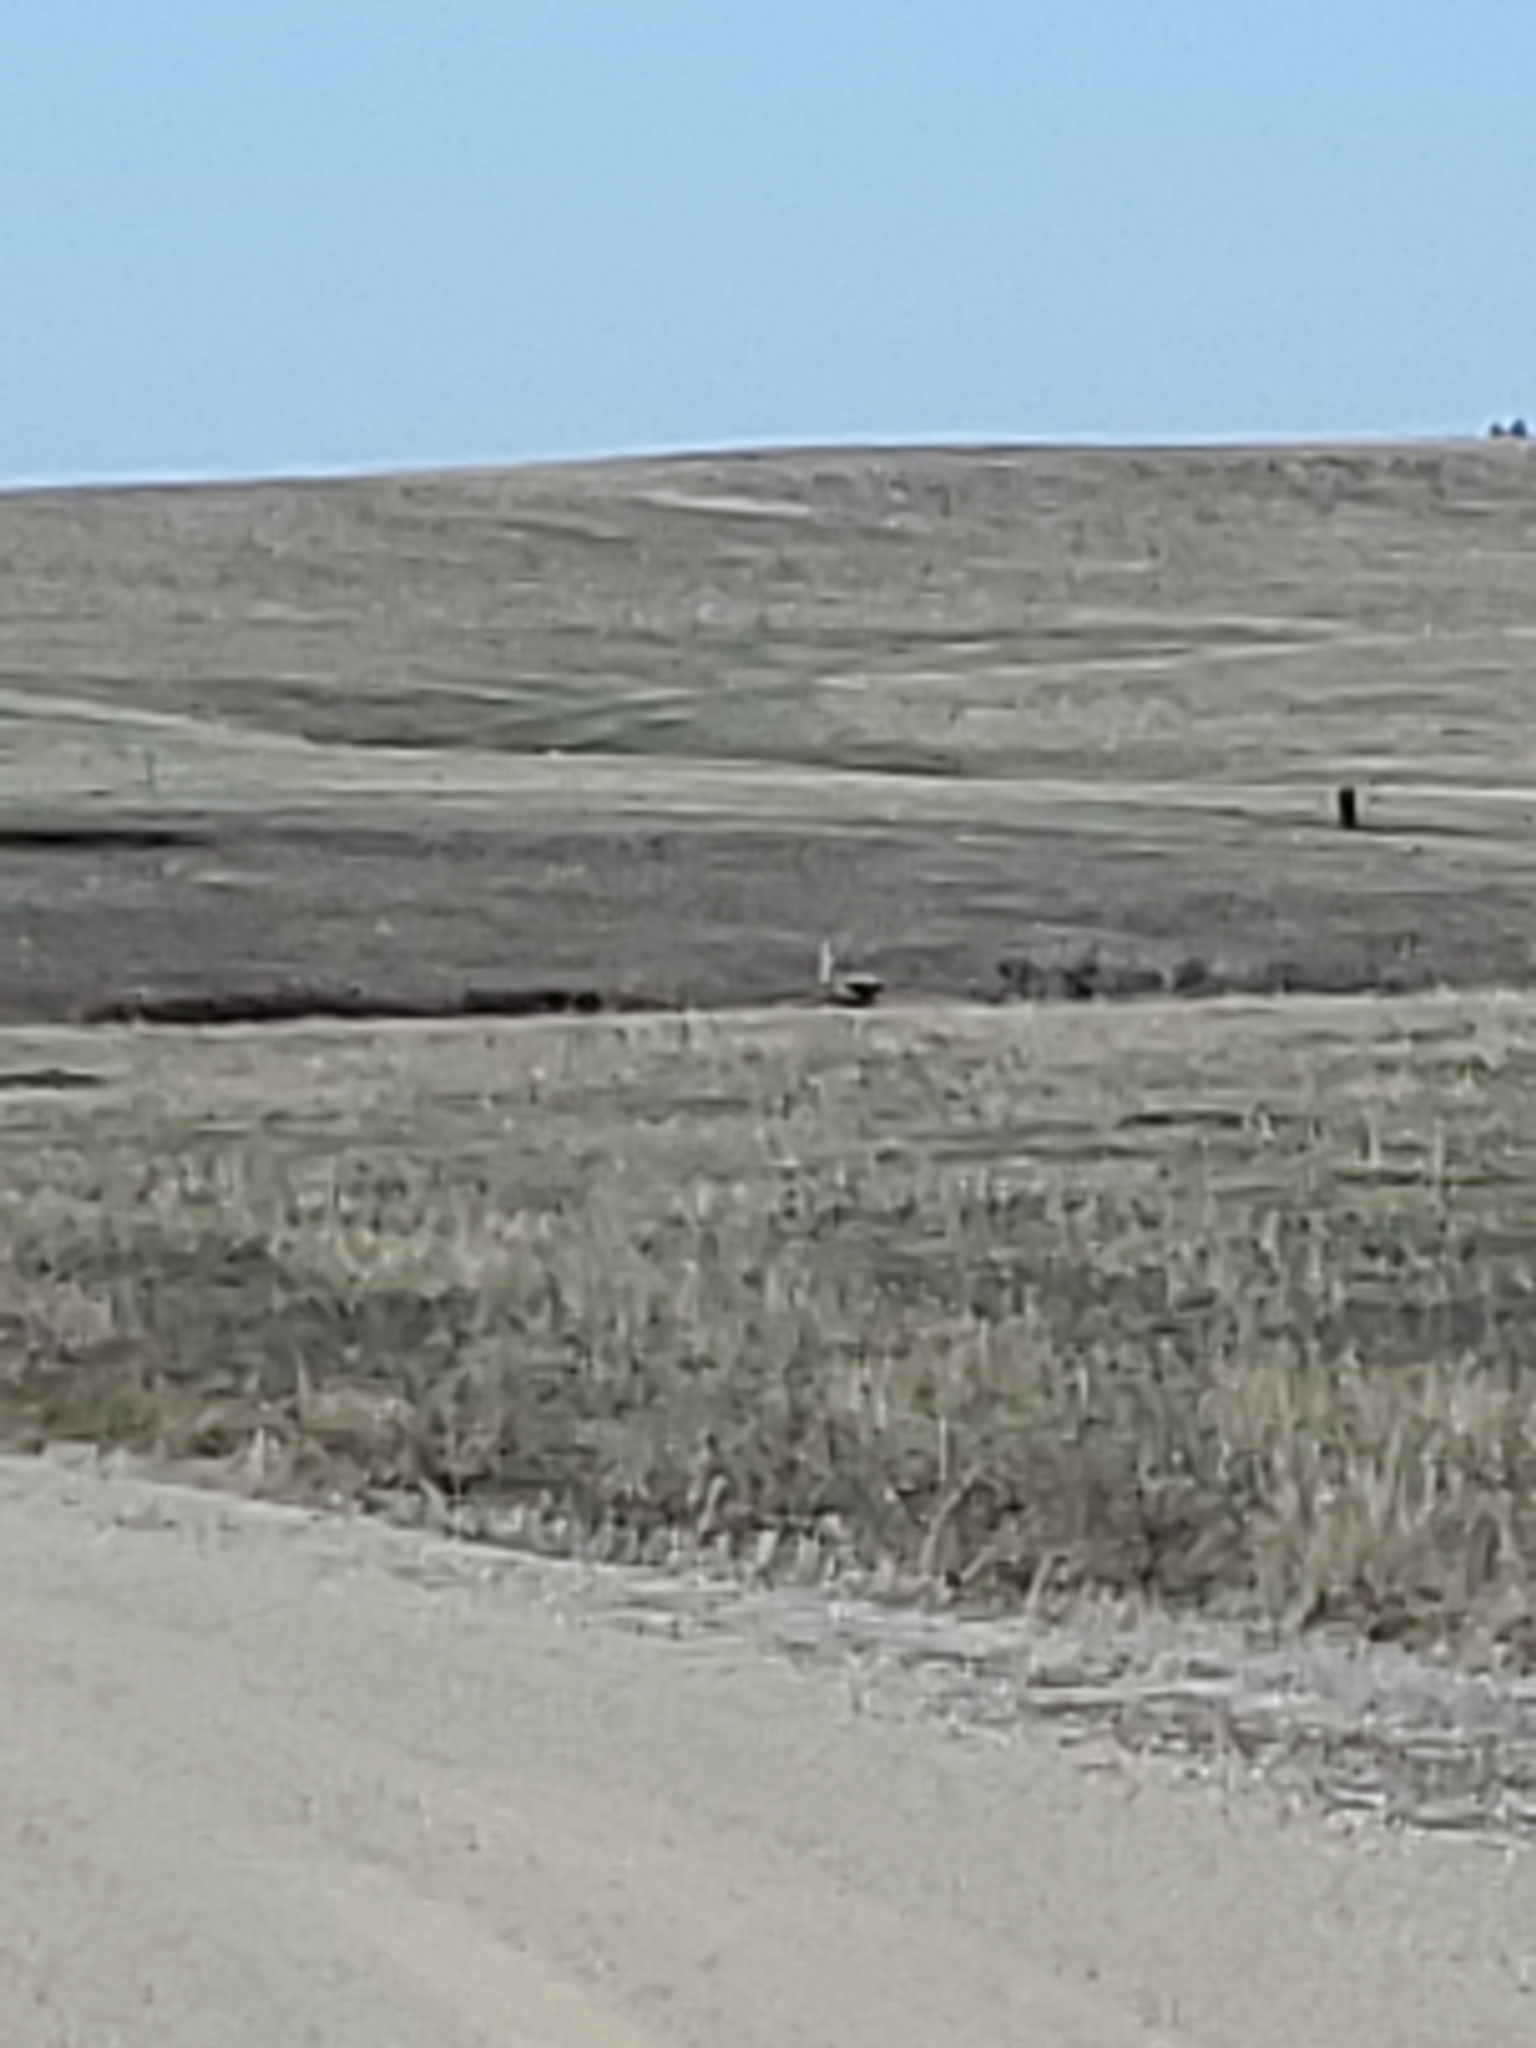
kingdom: Animalia
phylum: Chordata
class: Aves
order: Gruiformes
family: Gruidae
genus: Grus
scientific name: Grus canadensis
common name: Sandhill crane
